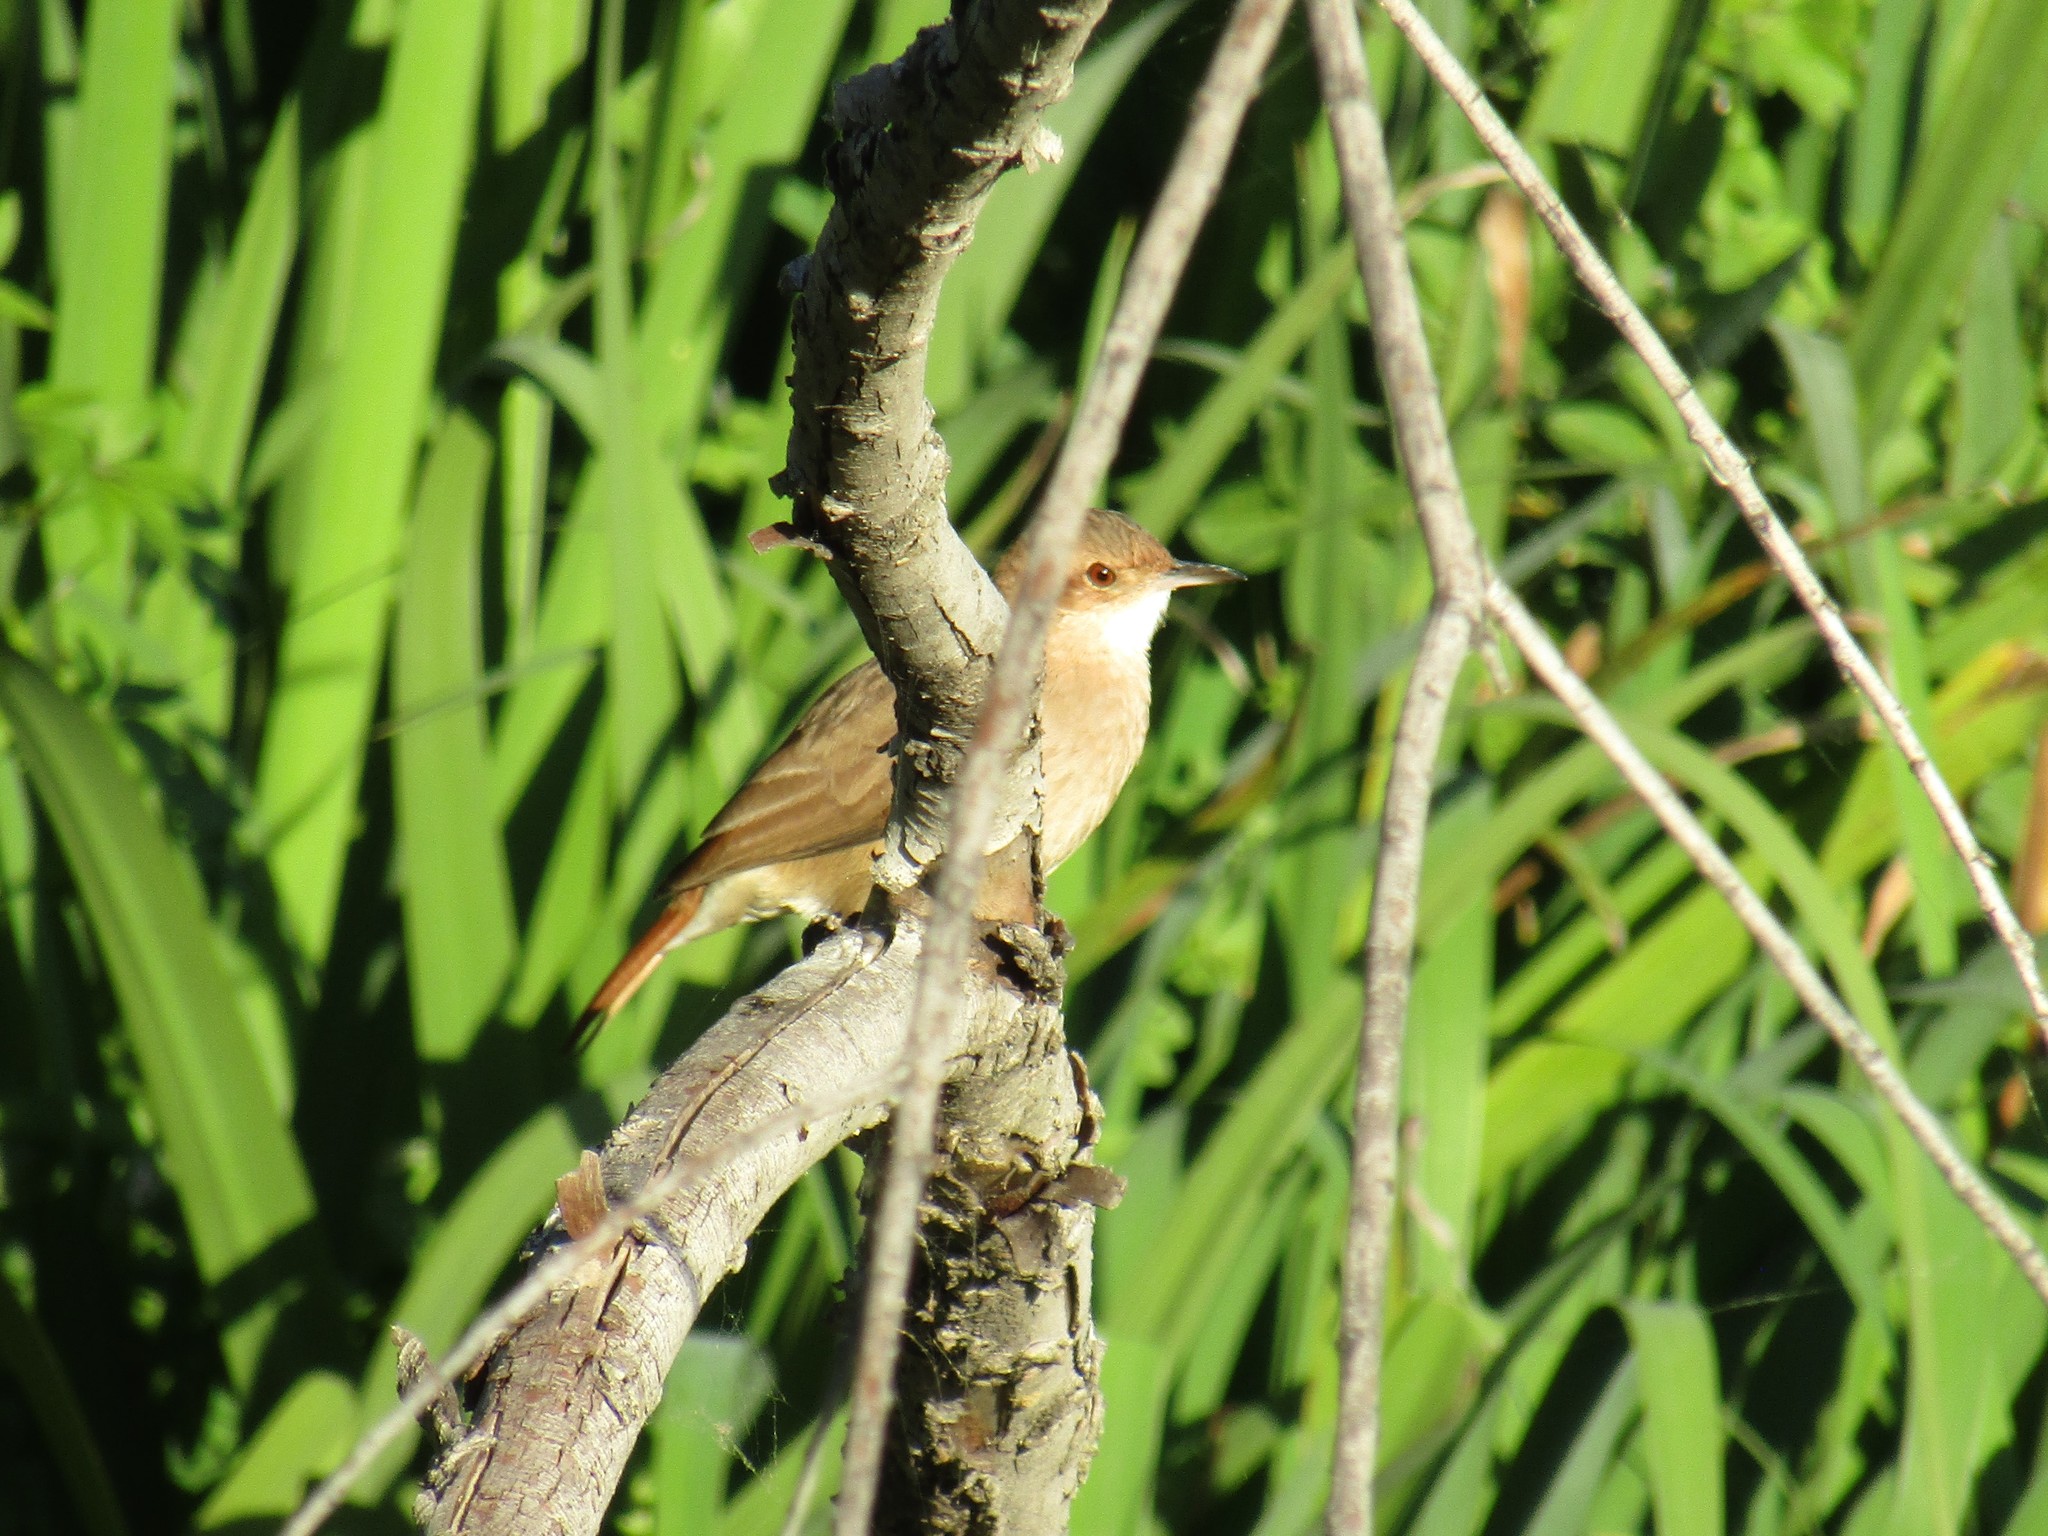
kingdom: Animalia
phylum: Chordata
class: Aves
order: Passeriformes
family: Furnariidae
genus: Furnarius
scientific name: Furnarius rufus
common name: Rufous hornero
